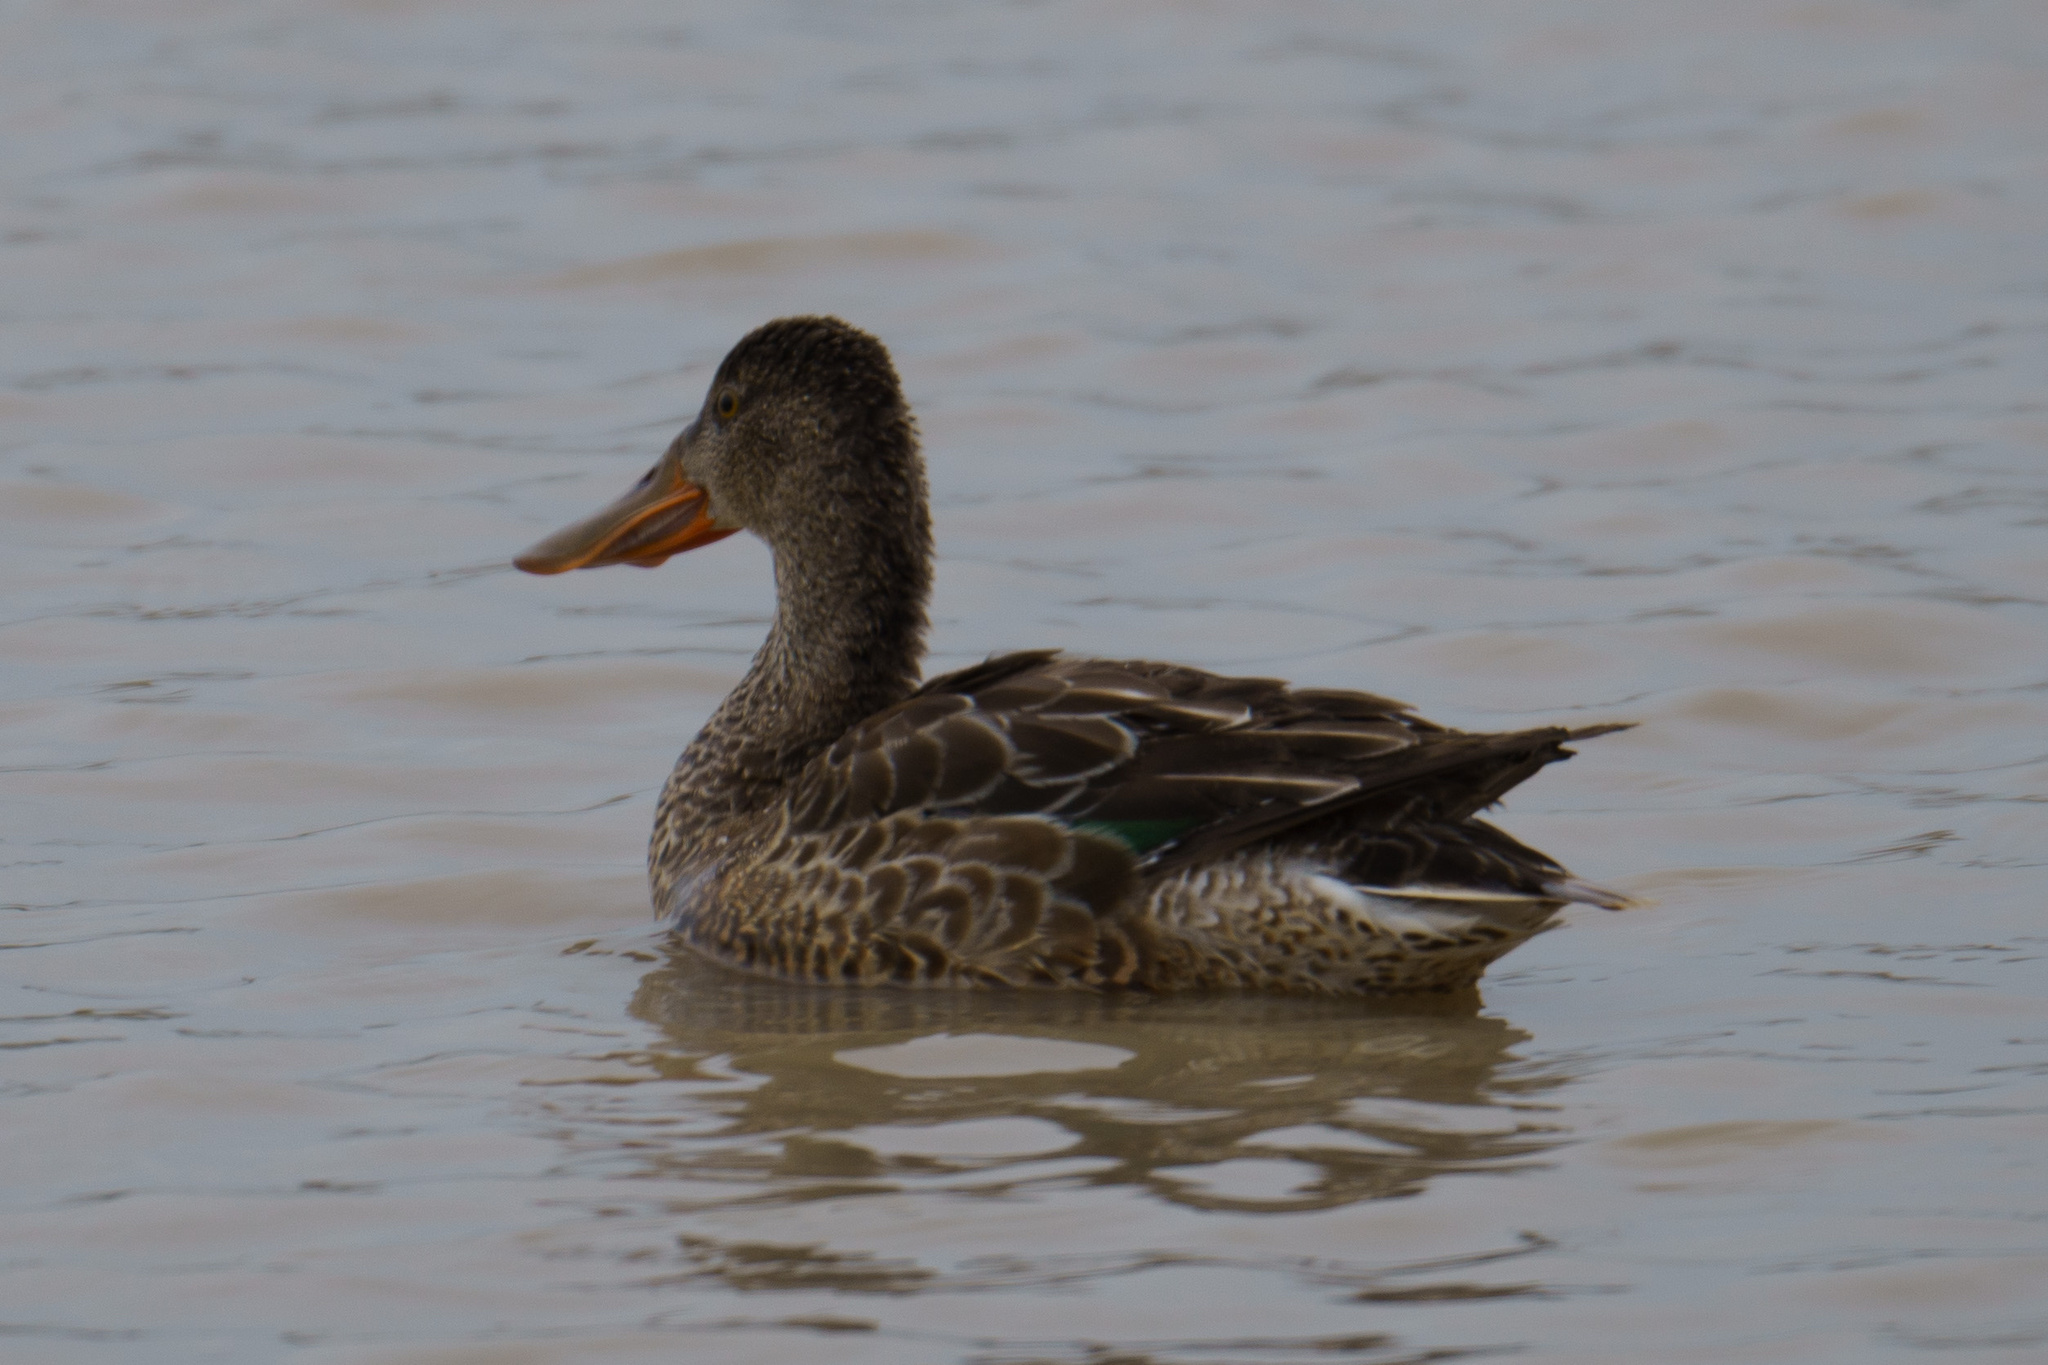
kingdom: Animalia
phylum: Chordata
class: Aves
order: Anseriformes
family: Anatidae
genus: Spatula
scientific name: Spatula clypeata
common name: Northern shoveler
